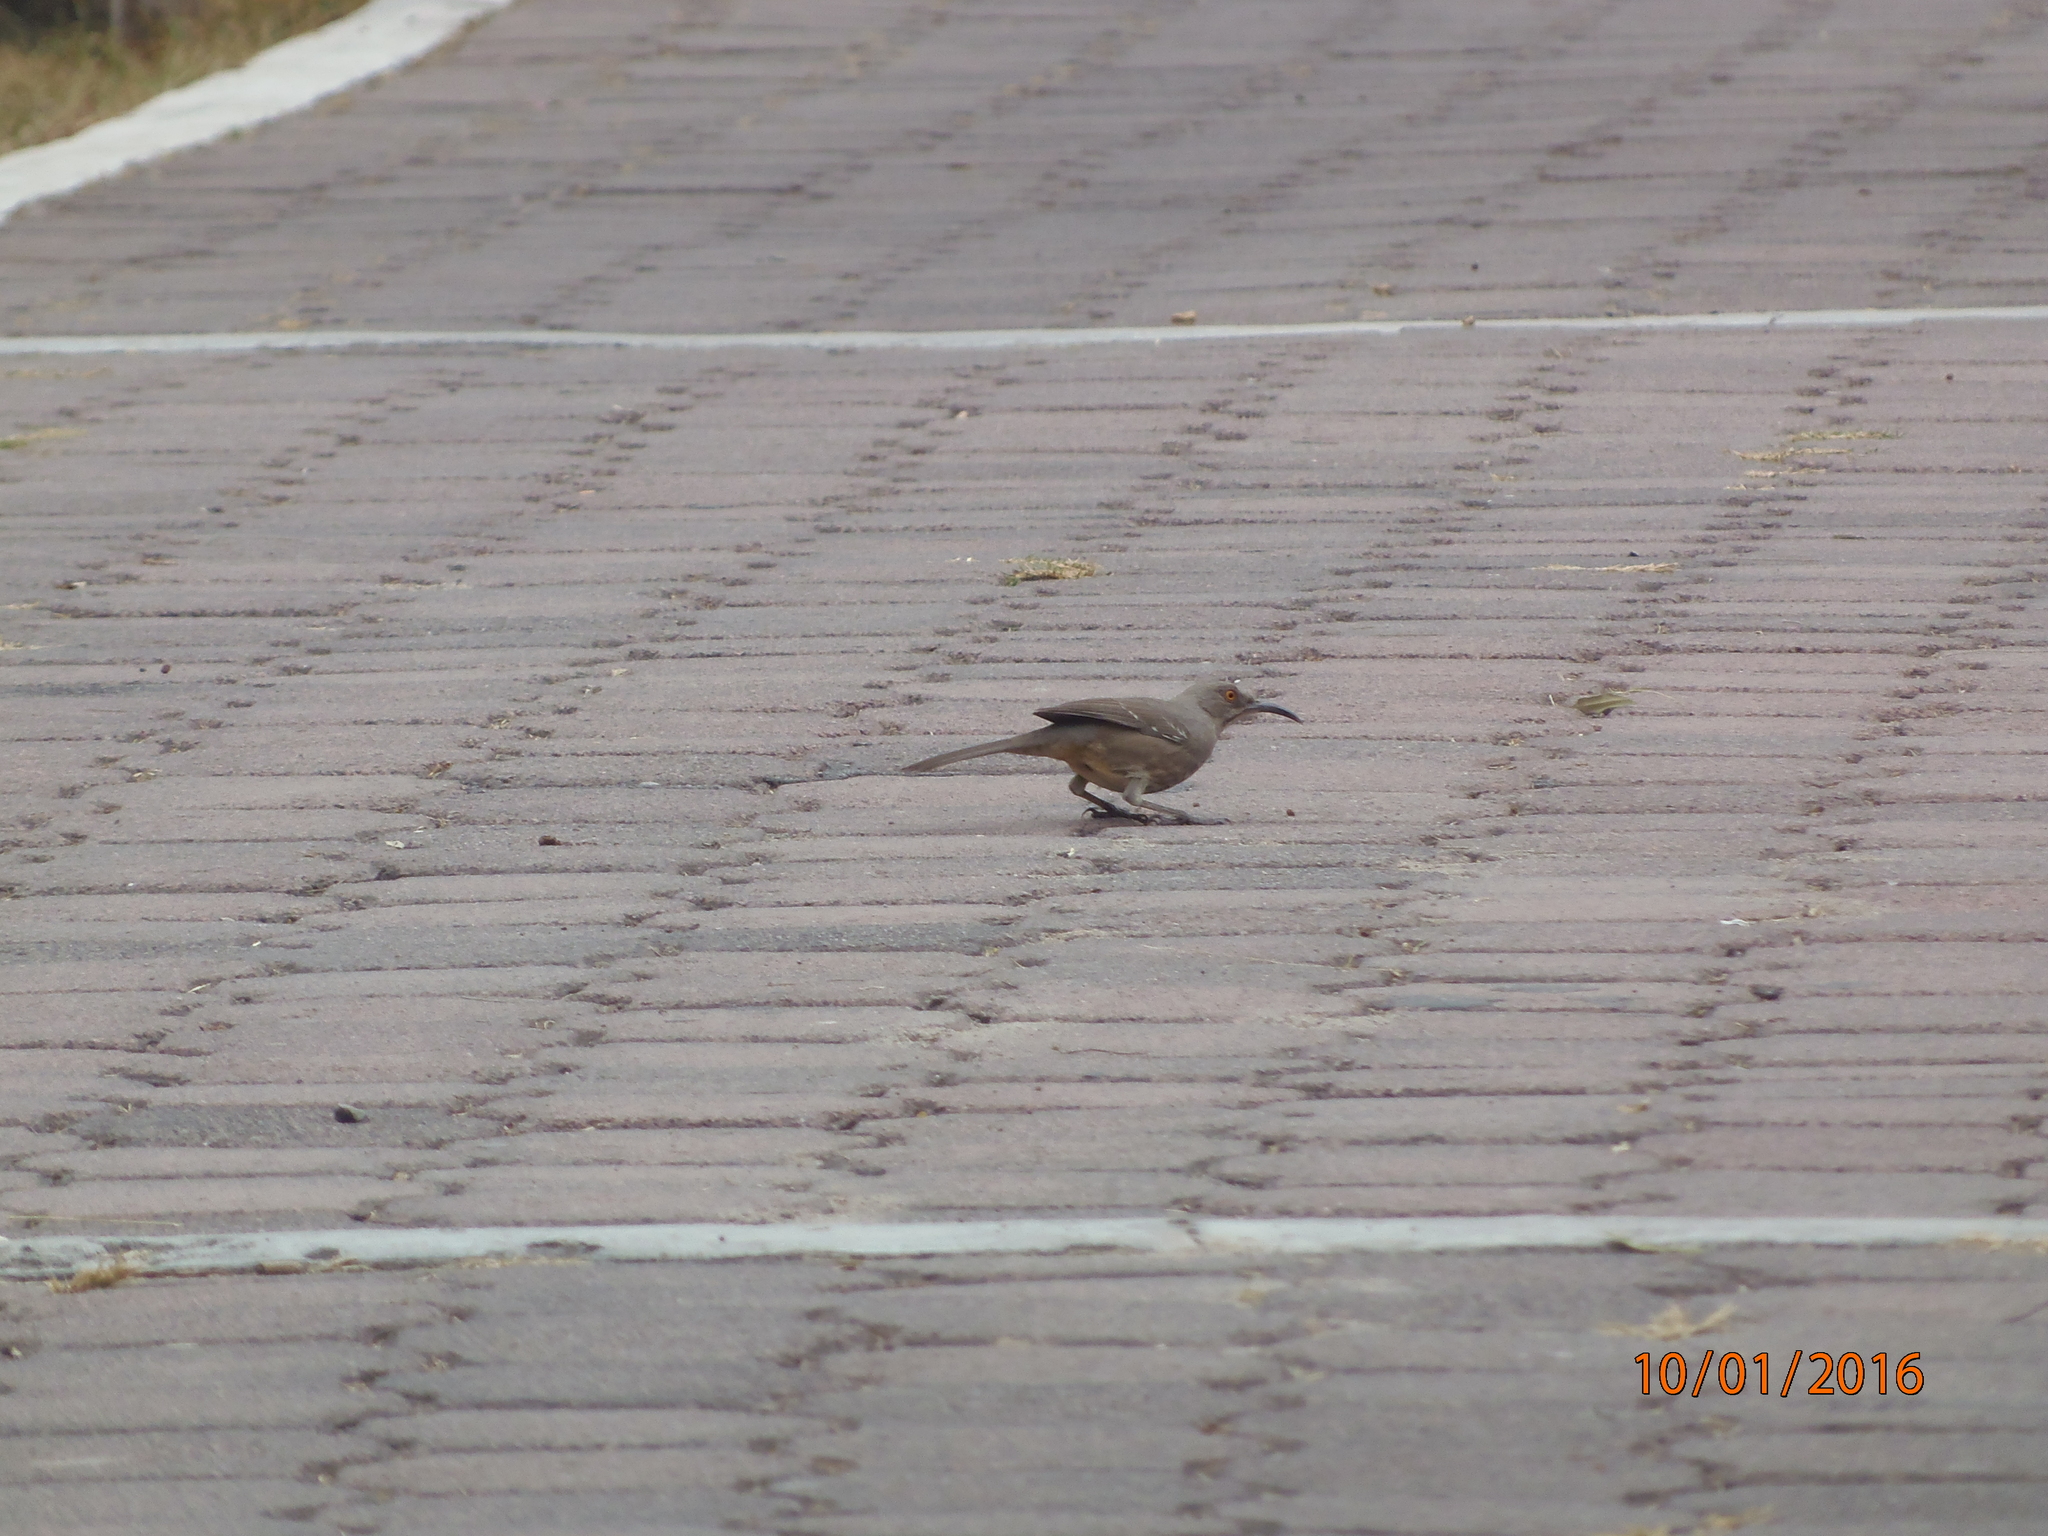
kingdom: Animalia
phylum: Chordata
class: Aves
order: Passeriformes
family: Mimidae
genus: Toxostoma
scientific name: Toxostoma curvirostre
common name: Curve-billed thrasher
